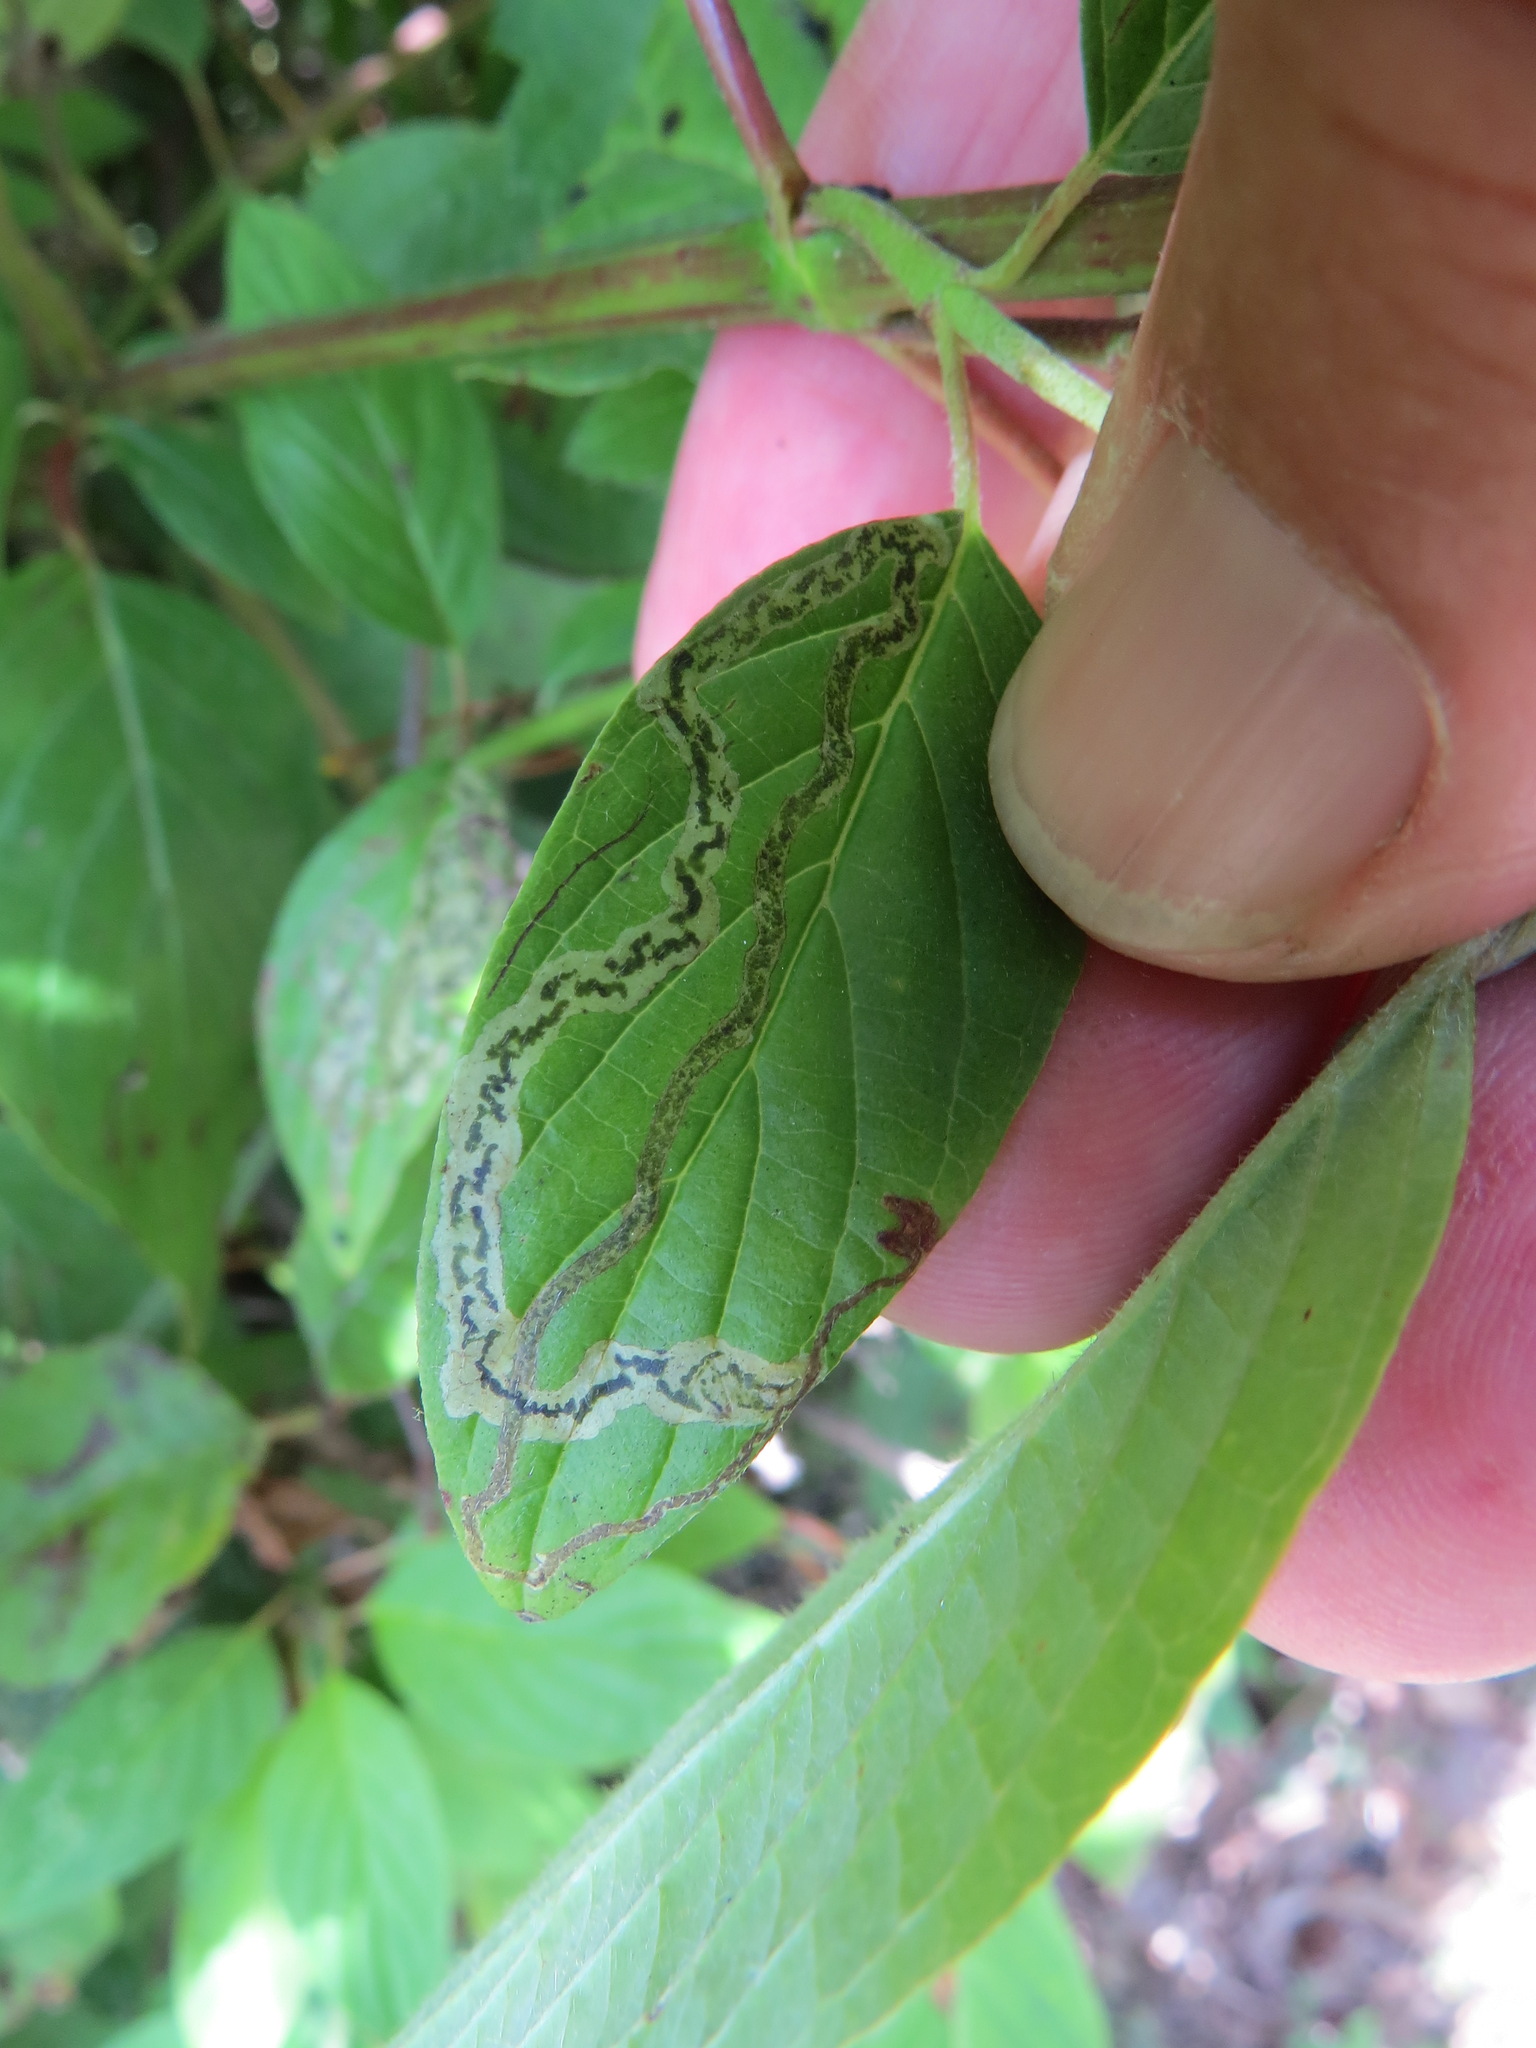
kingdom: Animalia
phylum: Arthropoda
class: Insecta
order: Diptera
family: Agromyzidae
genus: Phytomyza
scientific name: Phytomyza agromyzina
